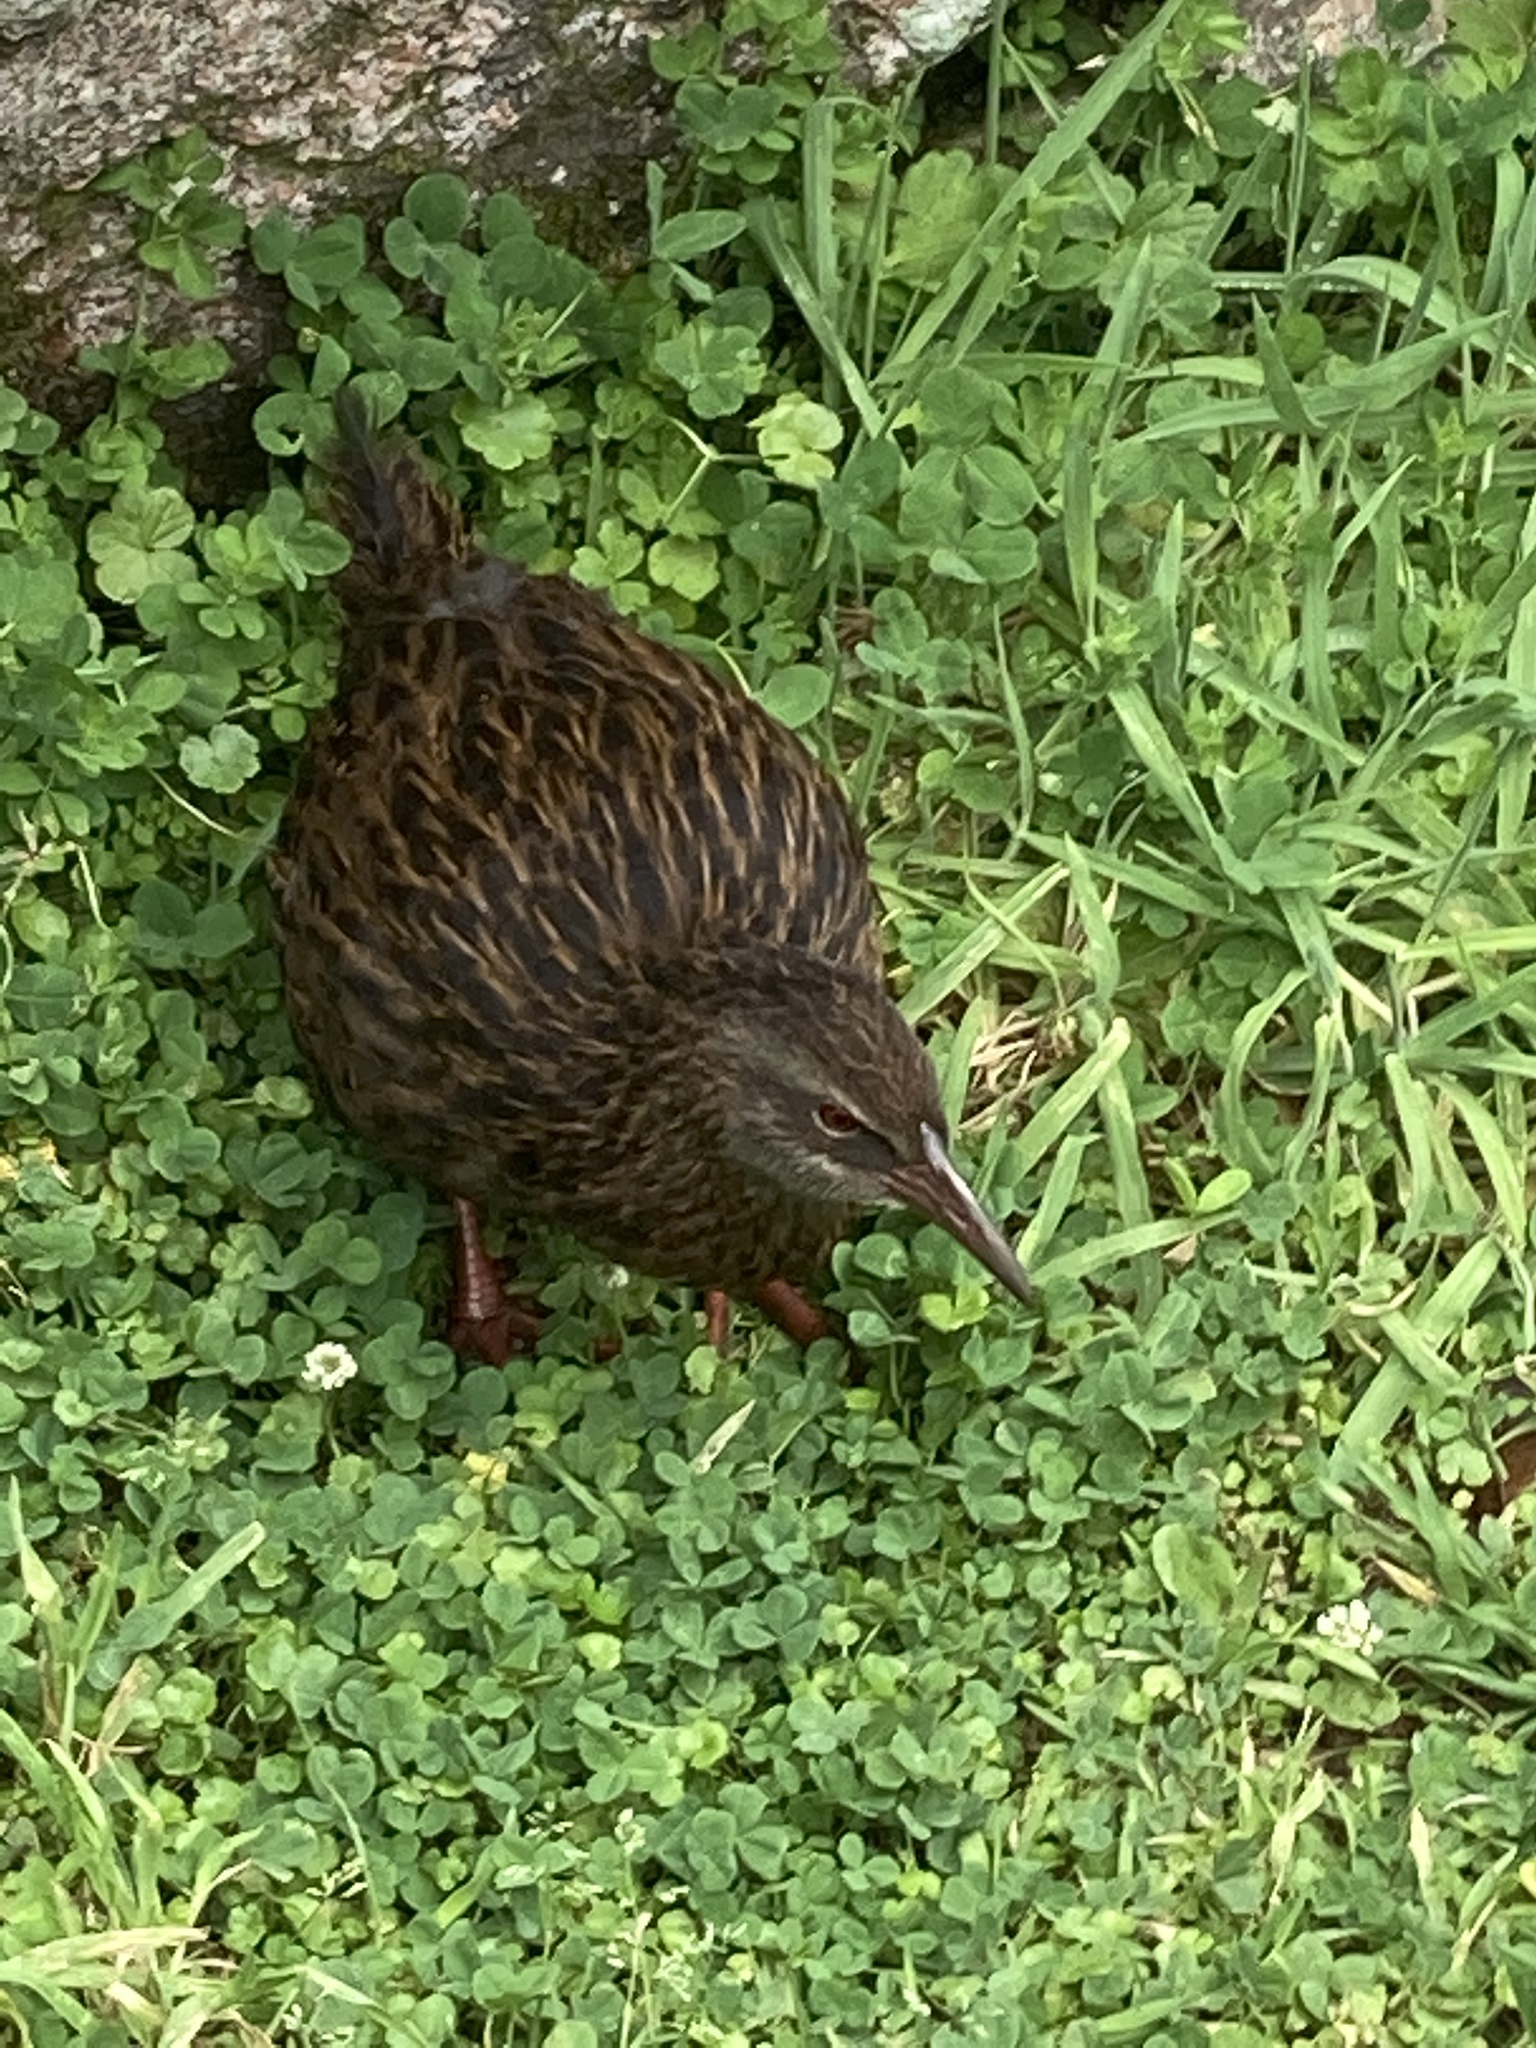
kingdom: Animalia
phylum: Chordata
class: Aves
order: Gruiformes
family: Rallidae
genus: Gallirallus
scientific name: Gallirallus australis
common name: Weka
